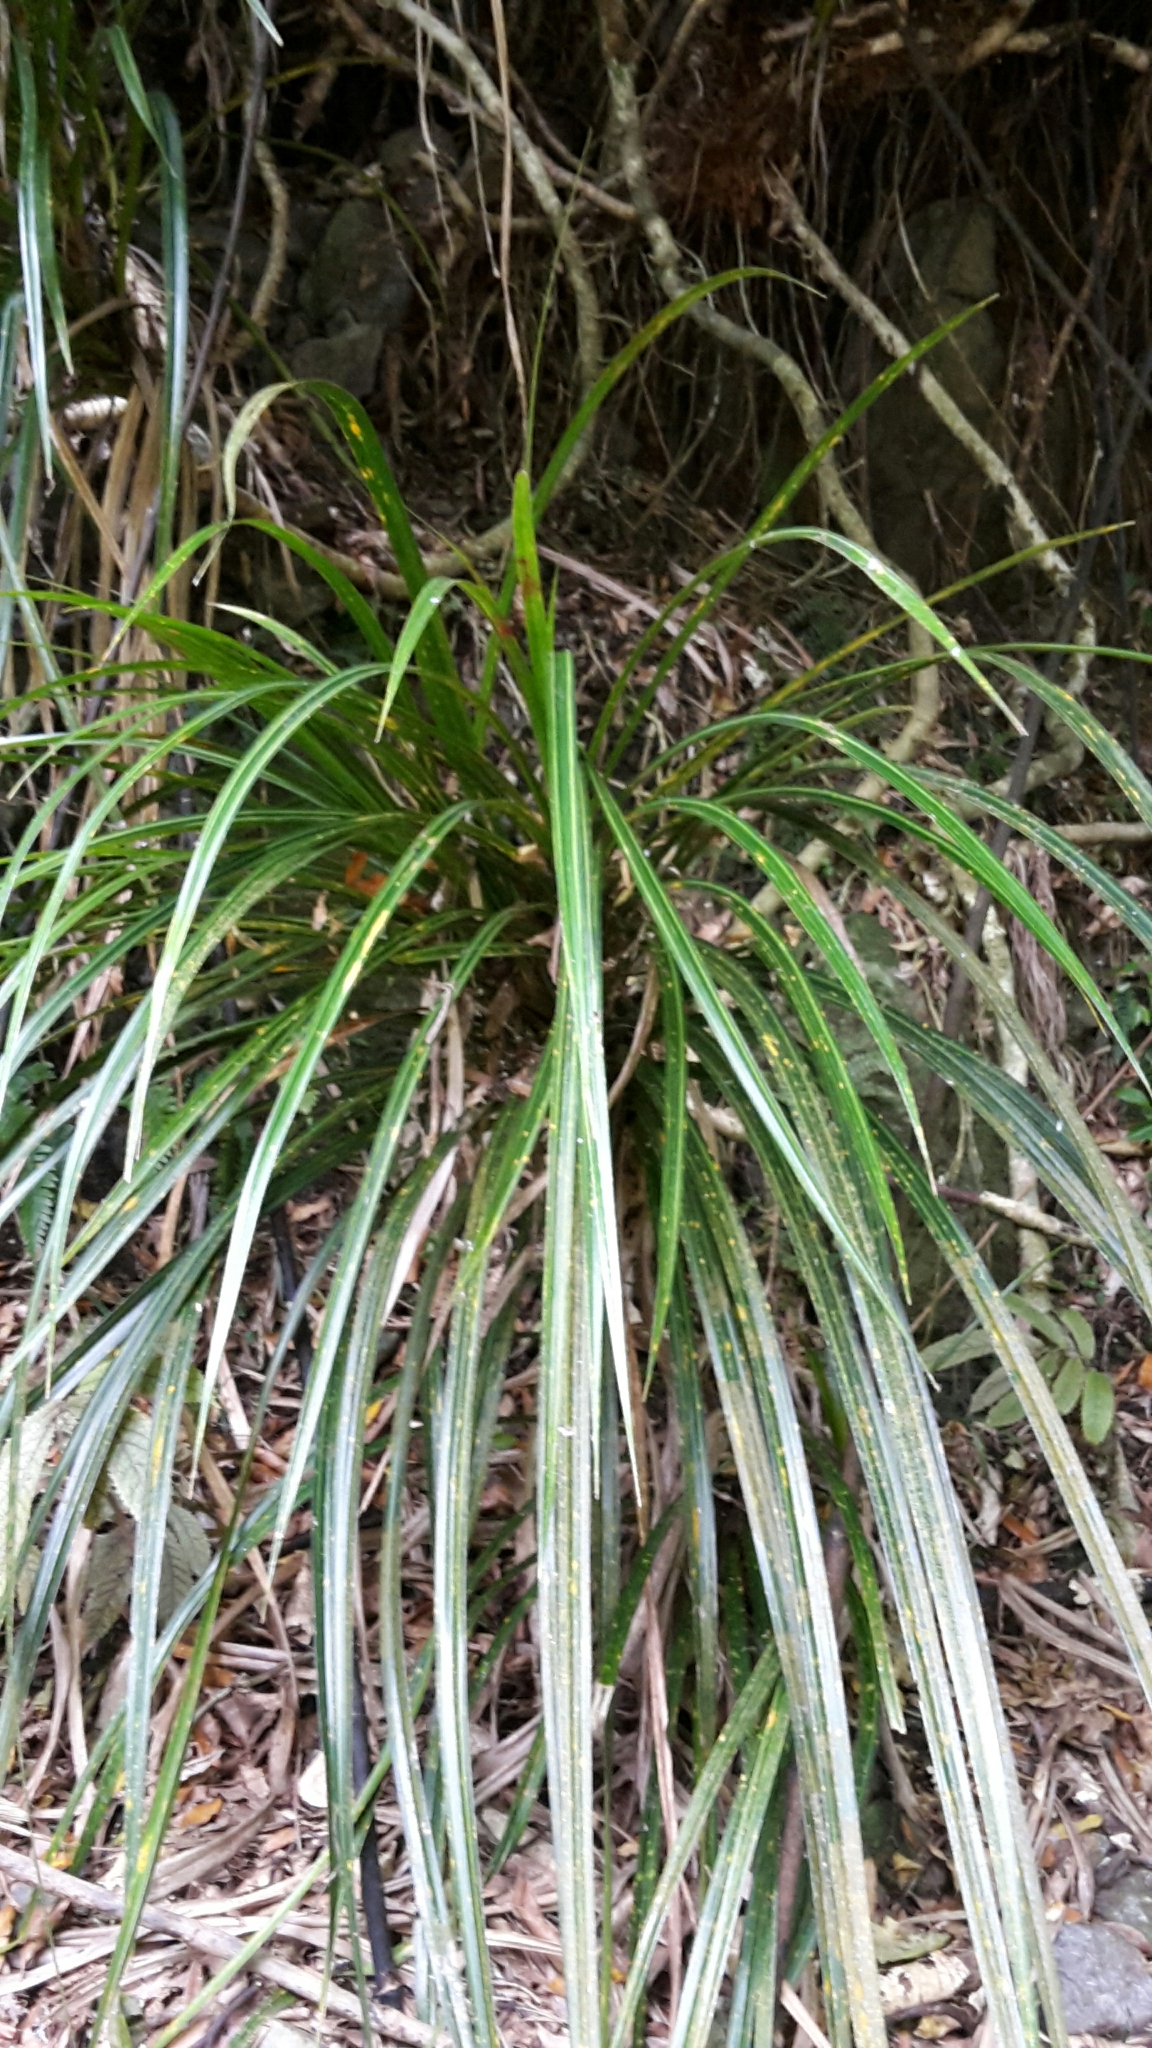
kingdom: Plantae
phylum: Tracheophyta
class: Liliopsida
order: Pandanales
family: Pandanaceae
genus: Freycinetia
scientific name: Freycinetia banksii
